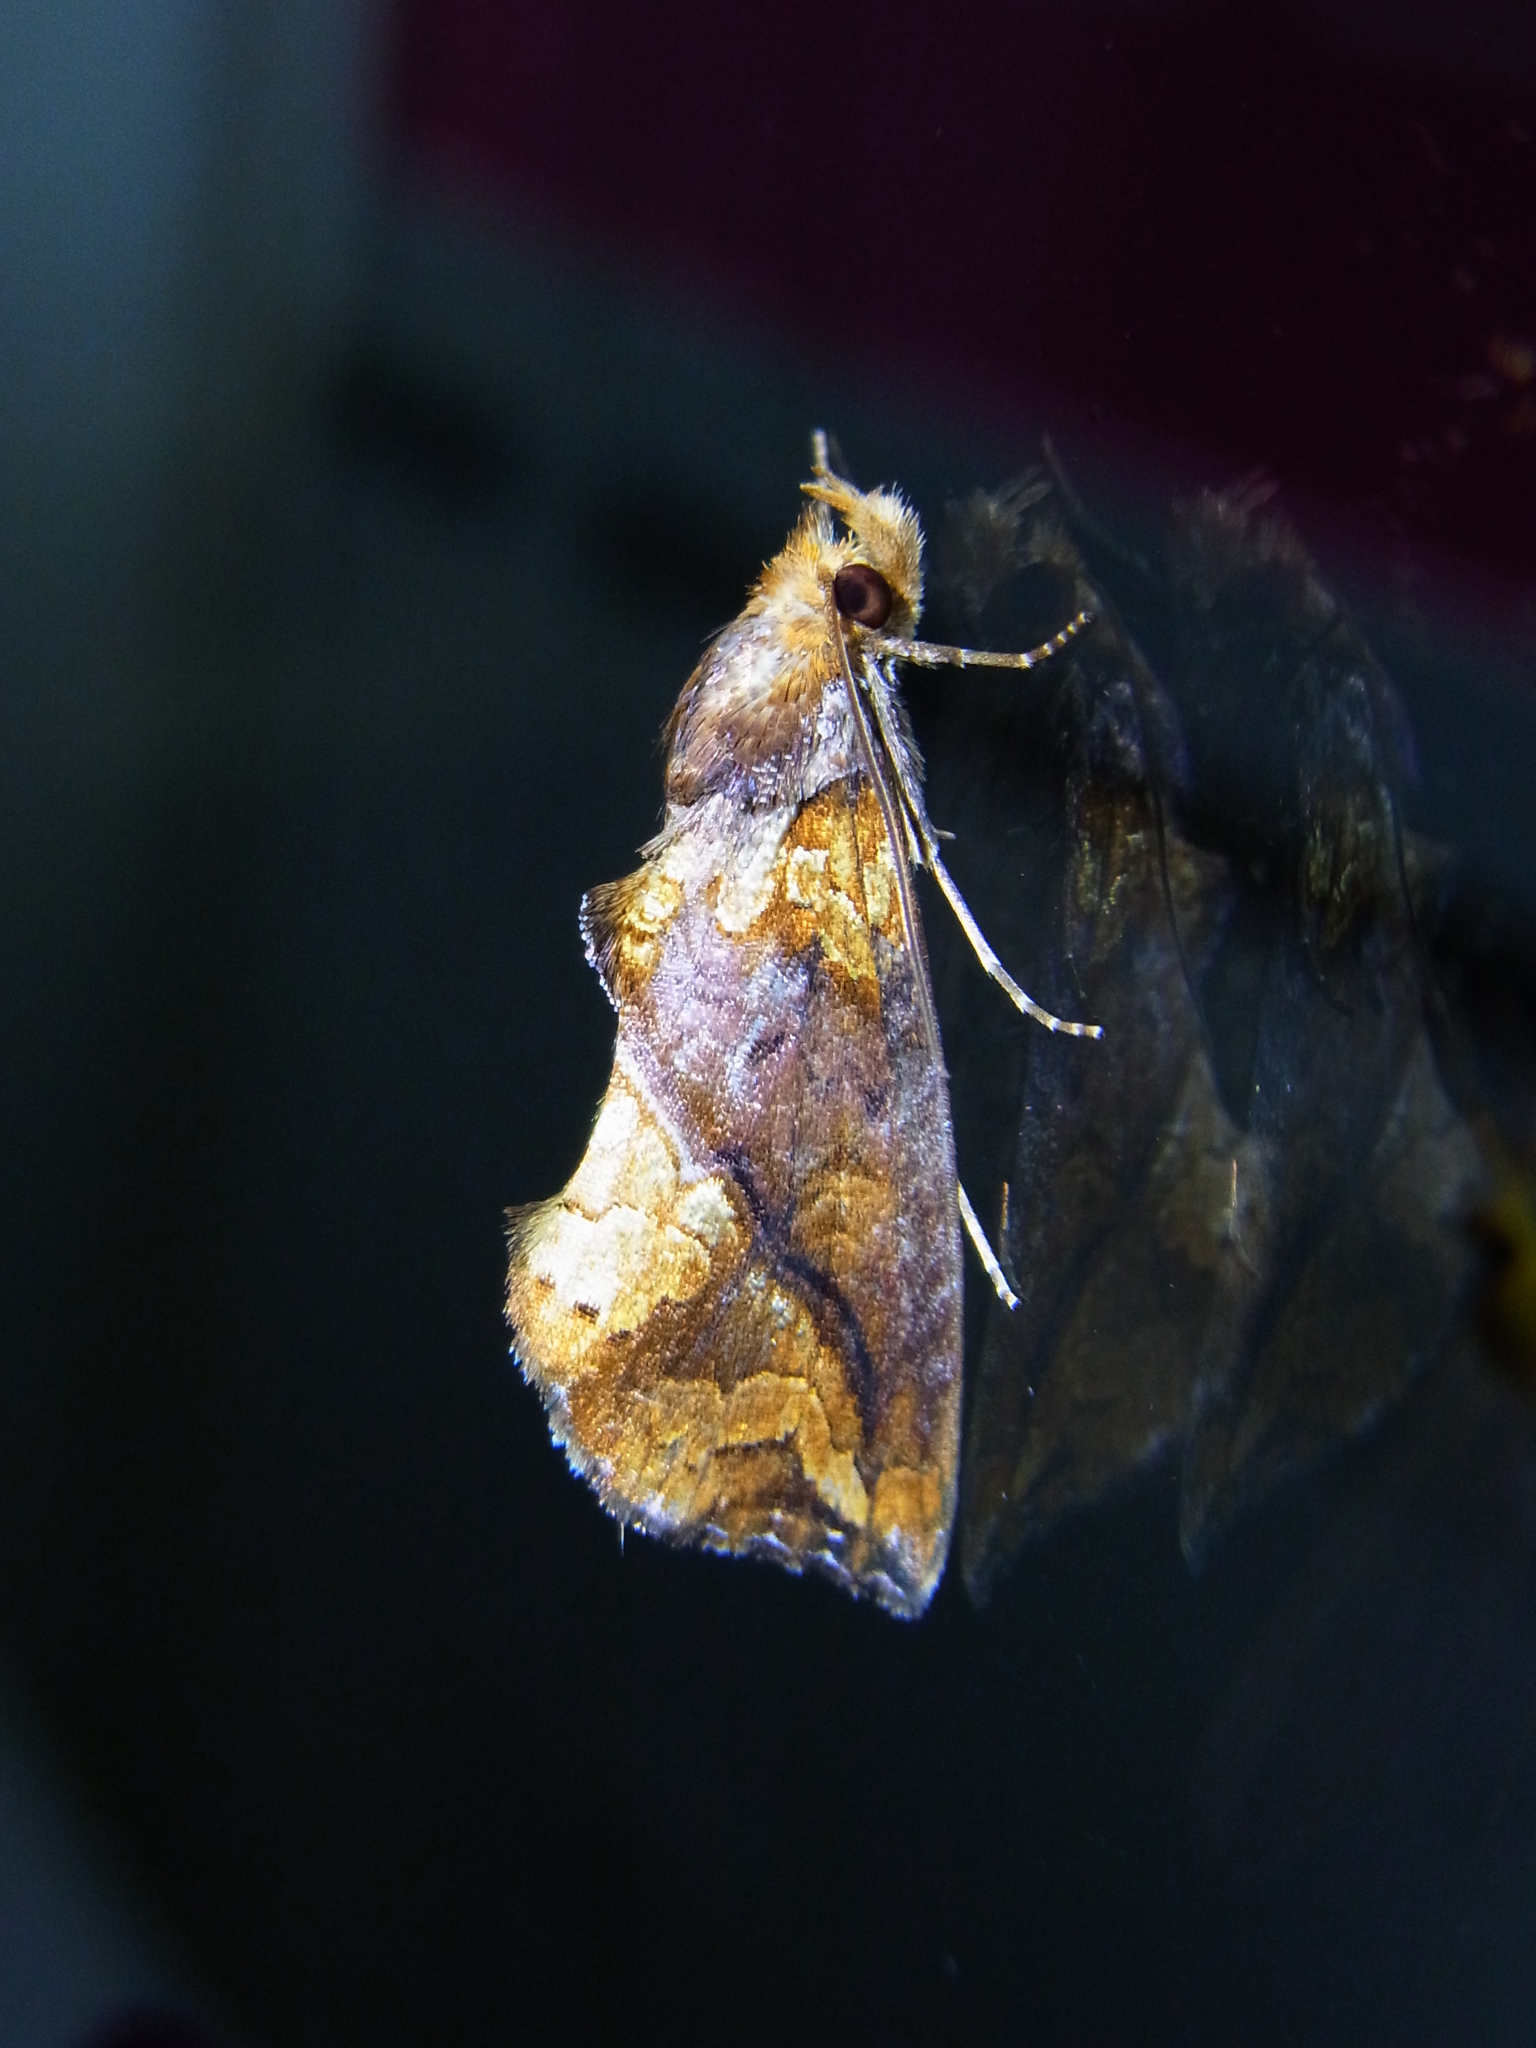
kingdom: Animalia
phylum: Arthropoda
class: Insecta
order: Lepidoptera
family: Erebidae
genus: Plusiodonta
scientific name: Plusiodonta coelonota
